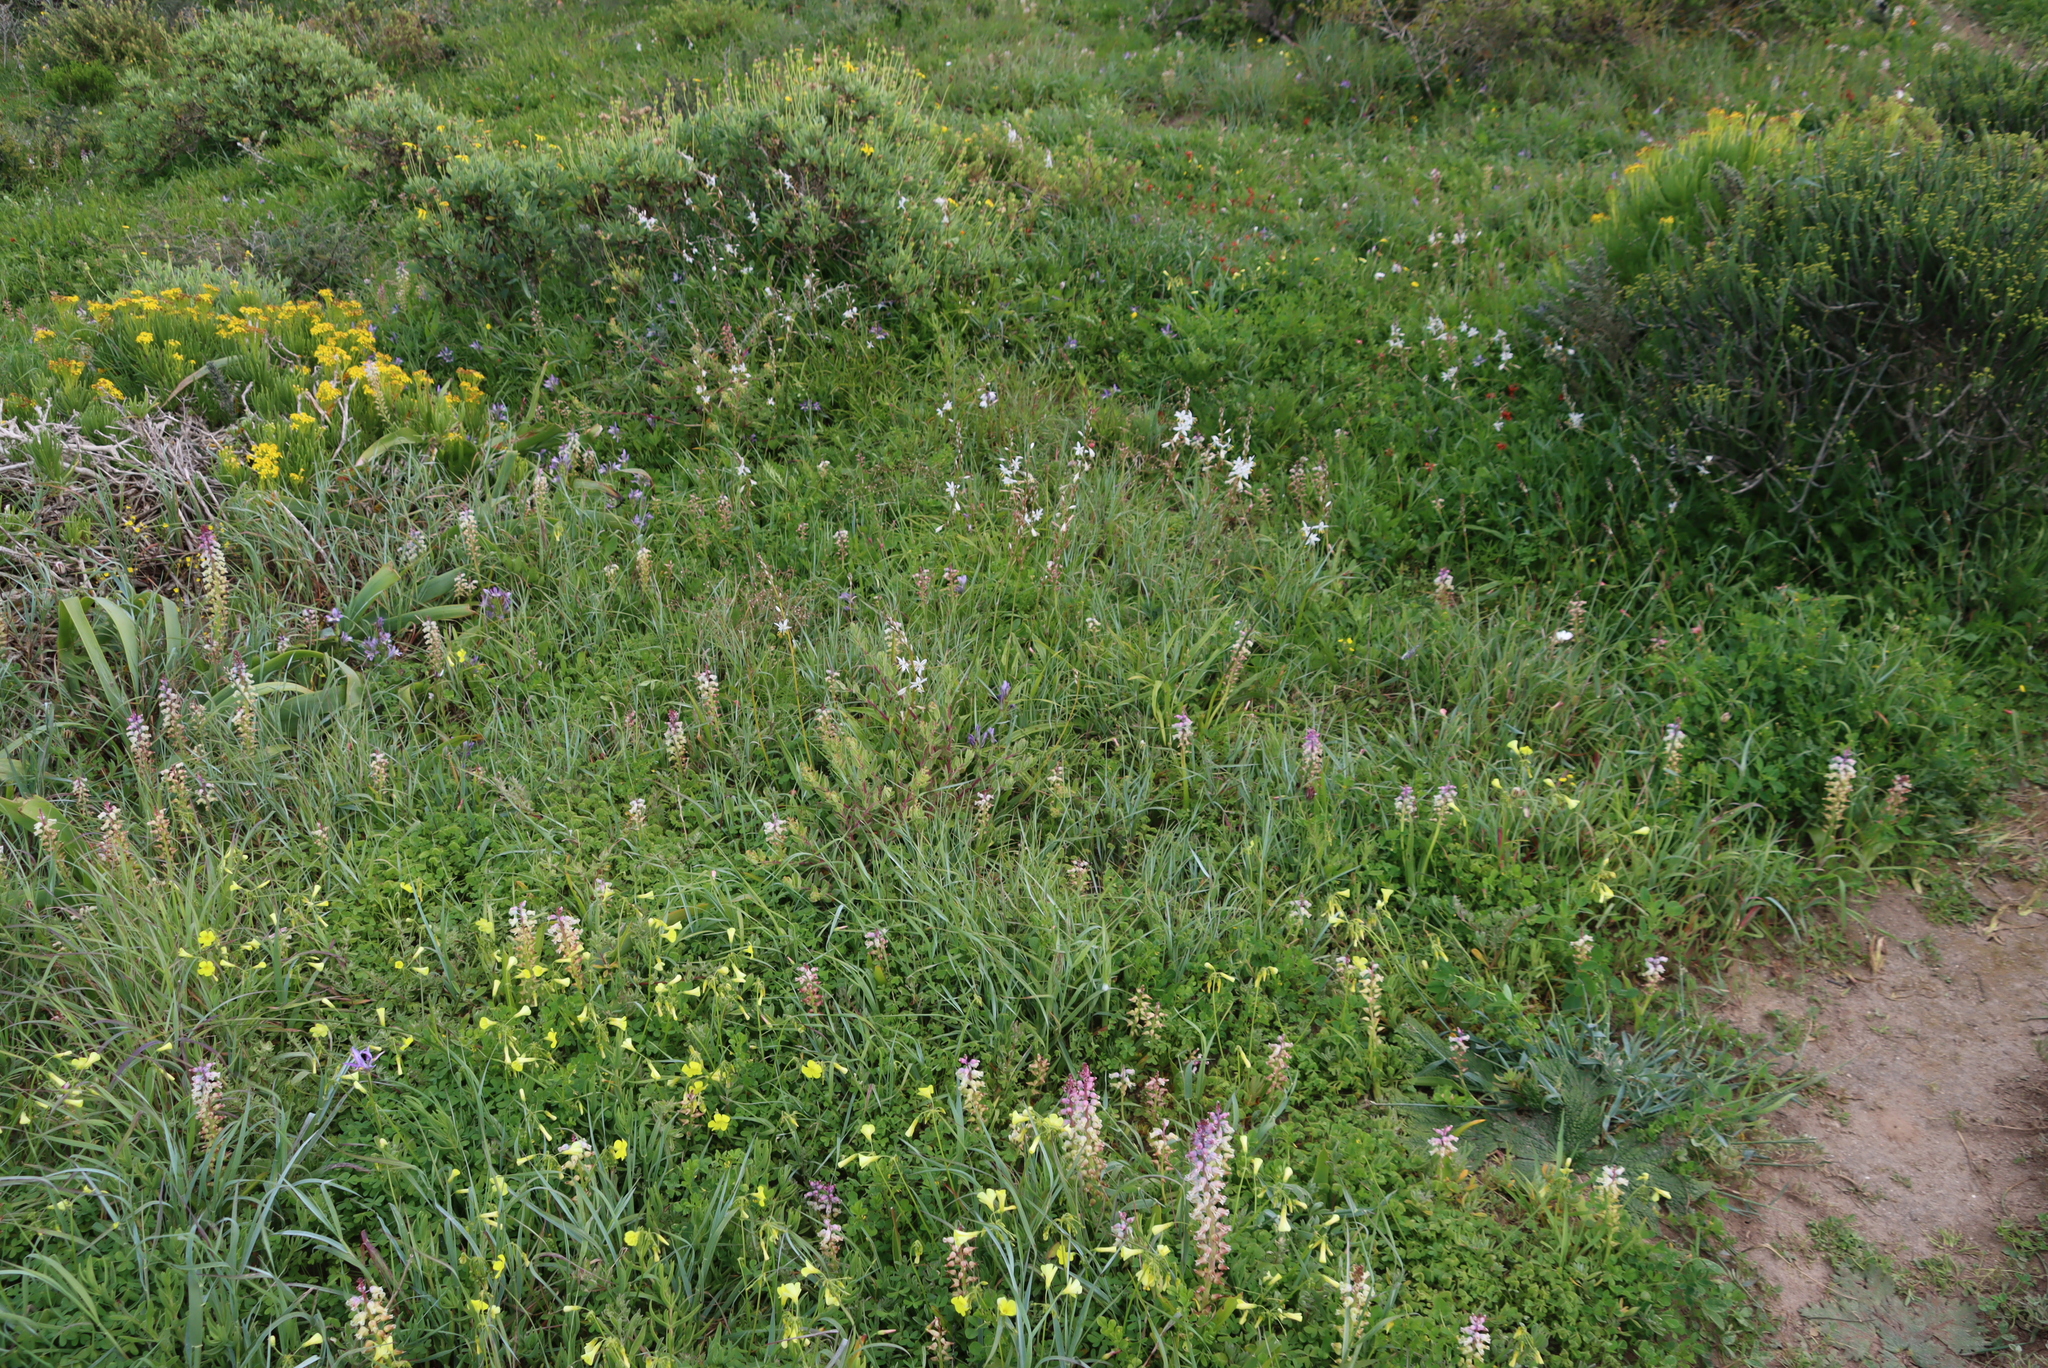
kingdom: Plantae
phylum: Tracheophyta
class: Liliopsida
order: Asparagales
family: Asparagaceae
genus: Lachenalia
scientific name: Lachenalia pallida
